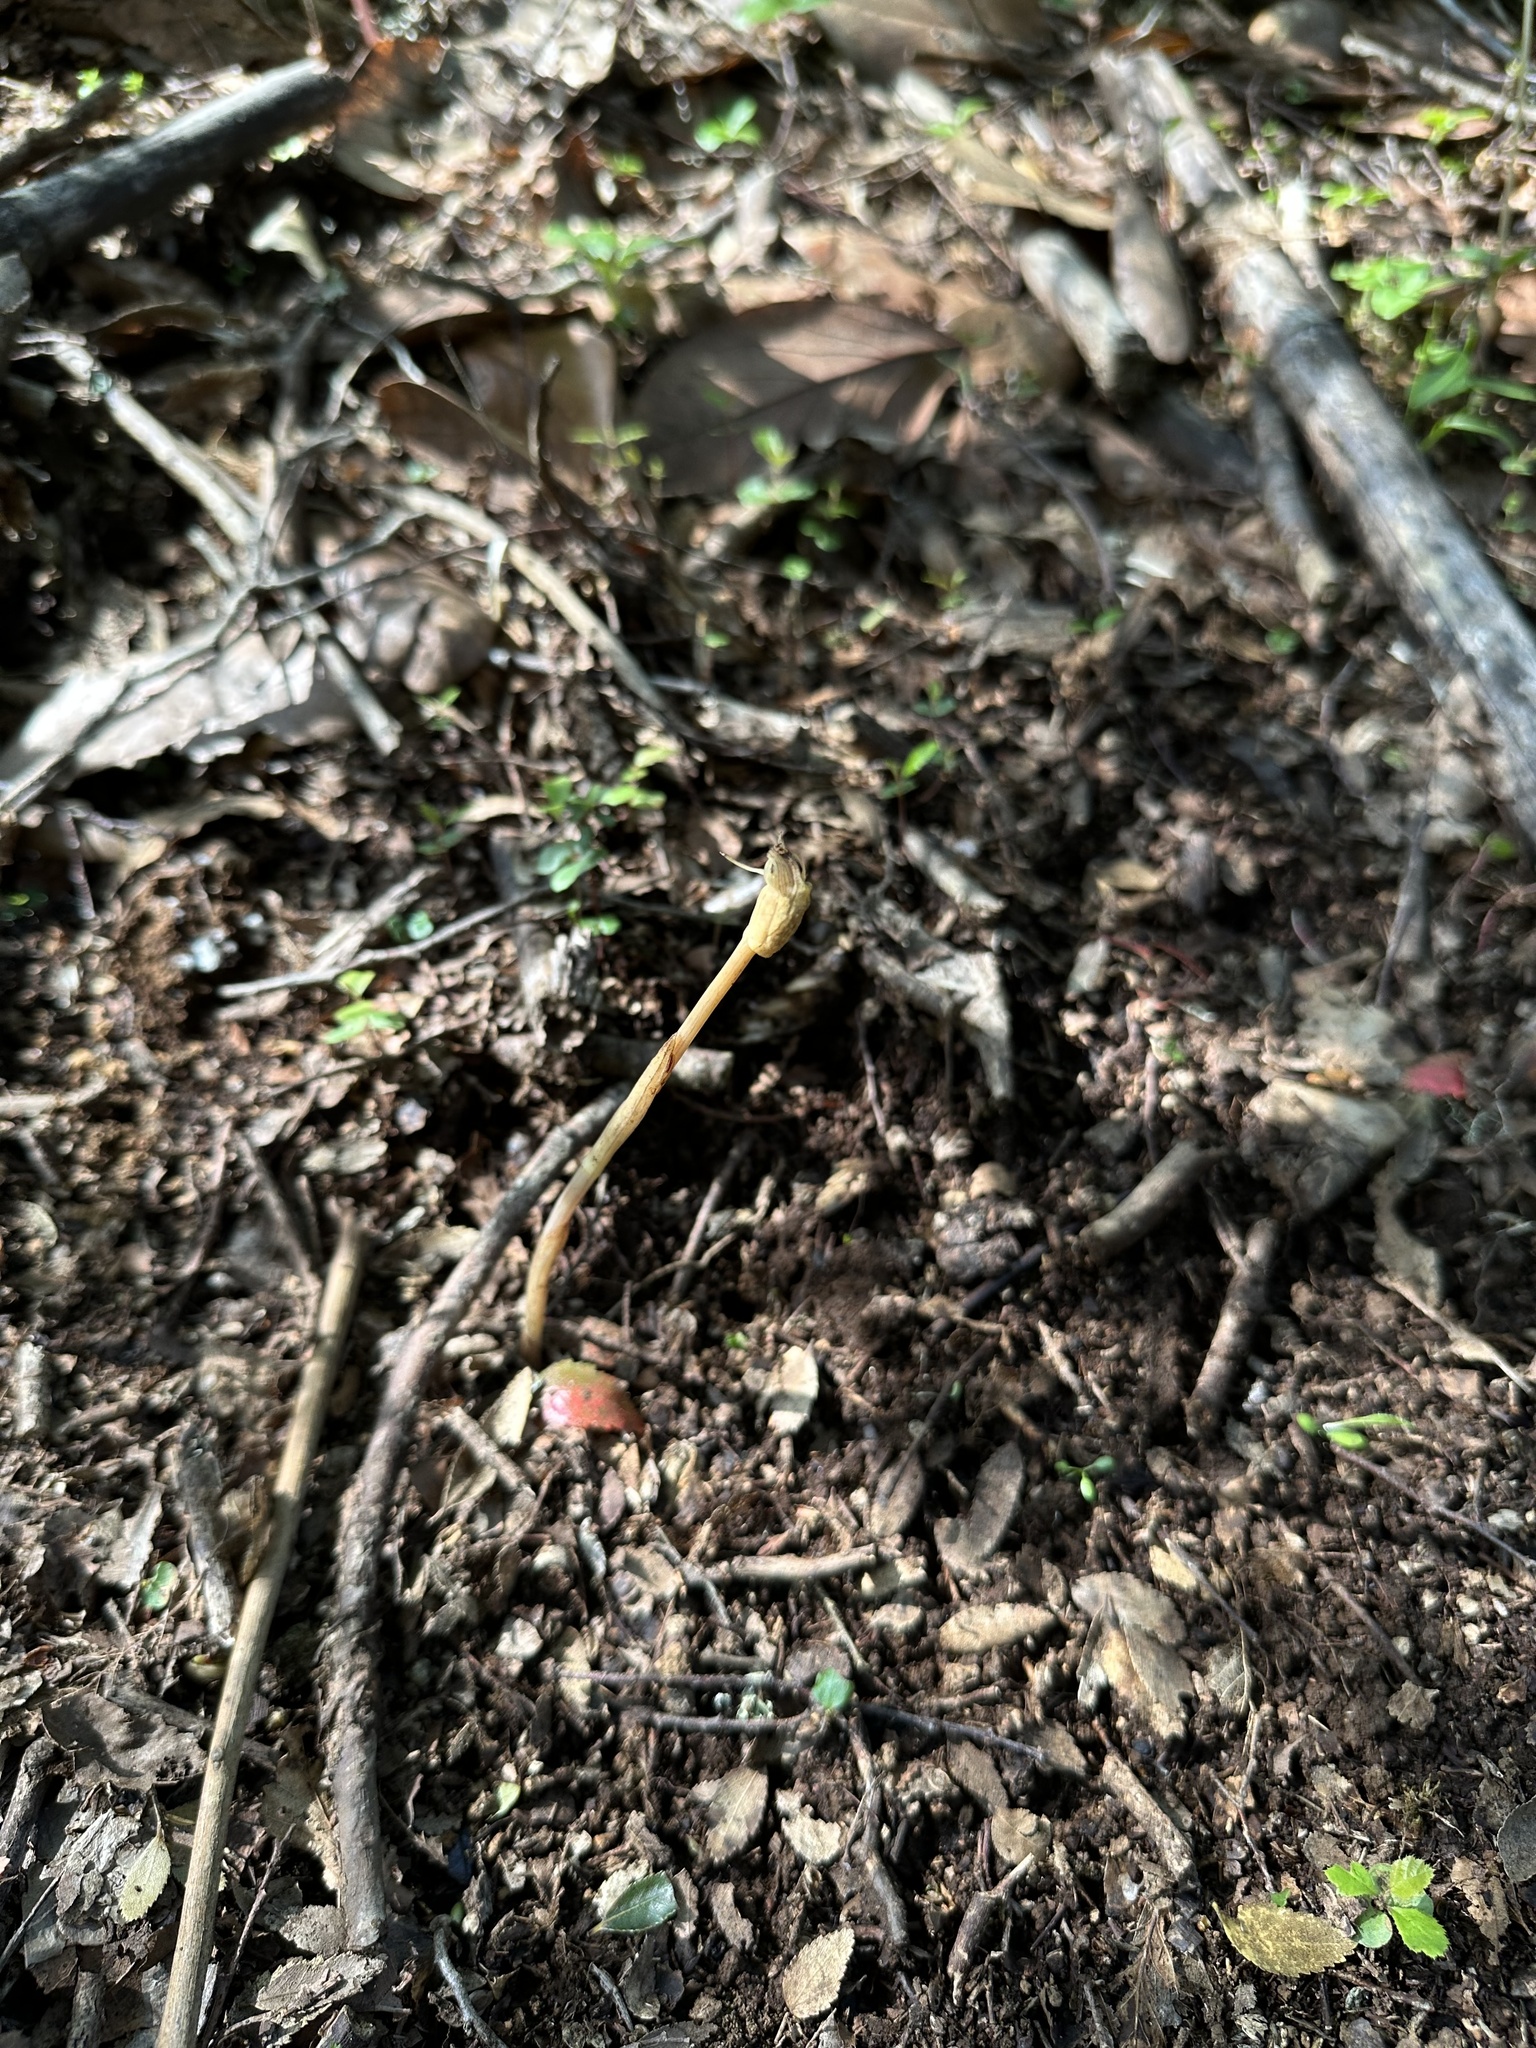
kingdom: Plantae
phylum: Tracheophyta
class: Liliopsida
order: Liliales
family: Corsiaceae
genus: Arachnitis
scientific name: Arachnitis uniflora
